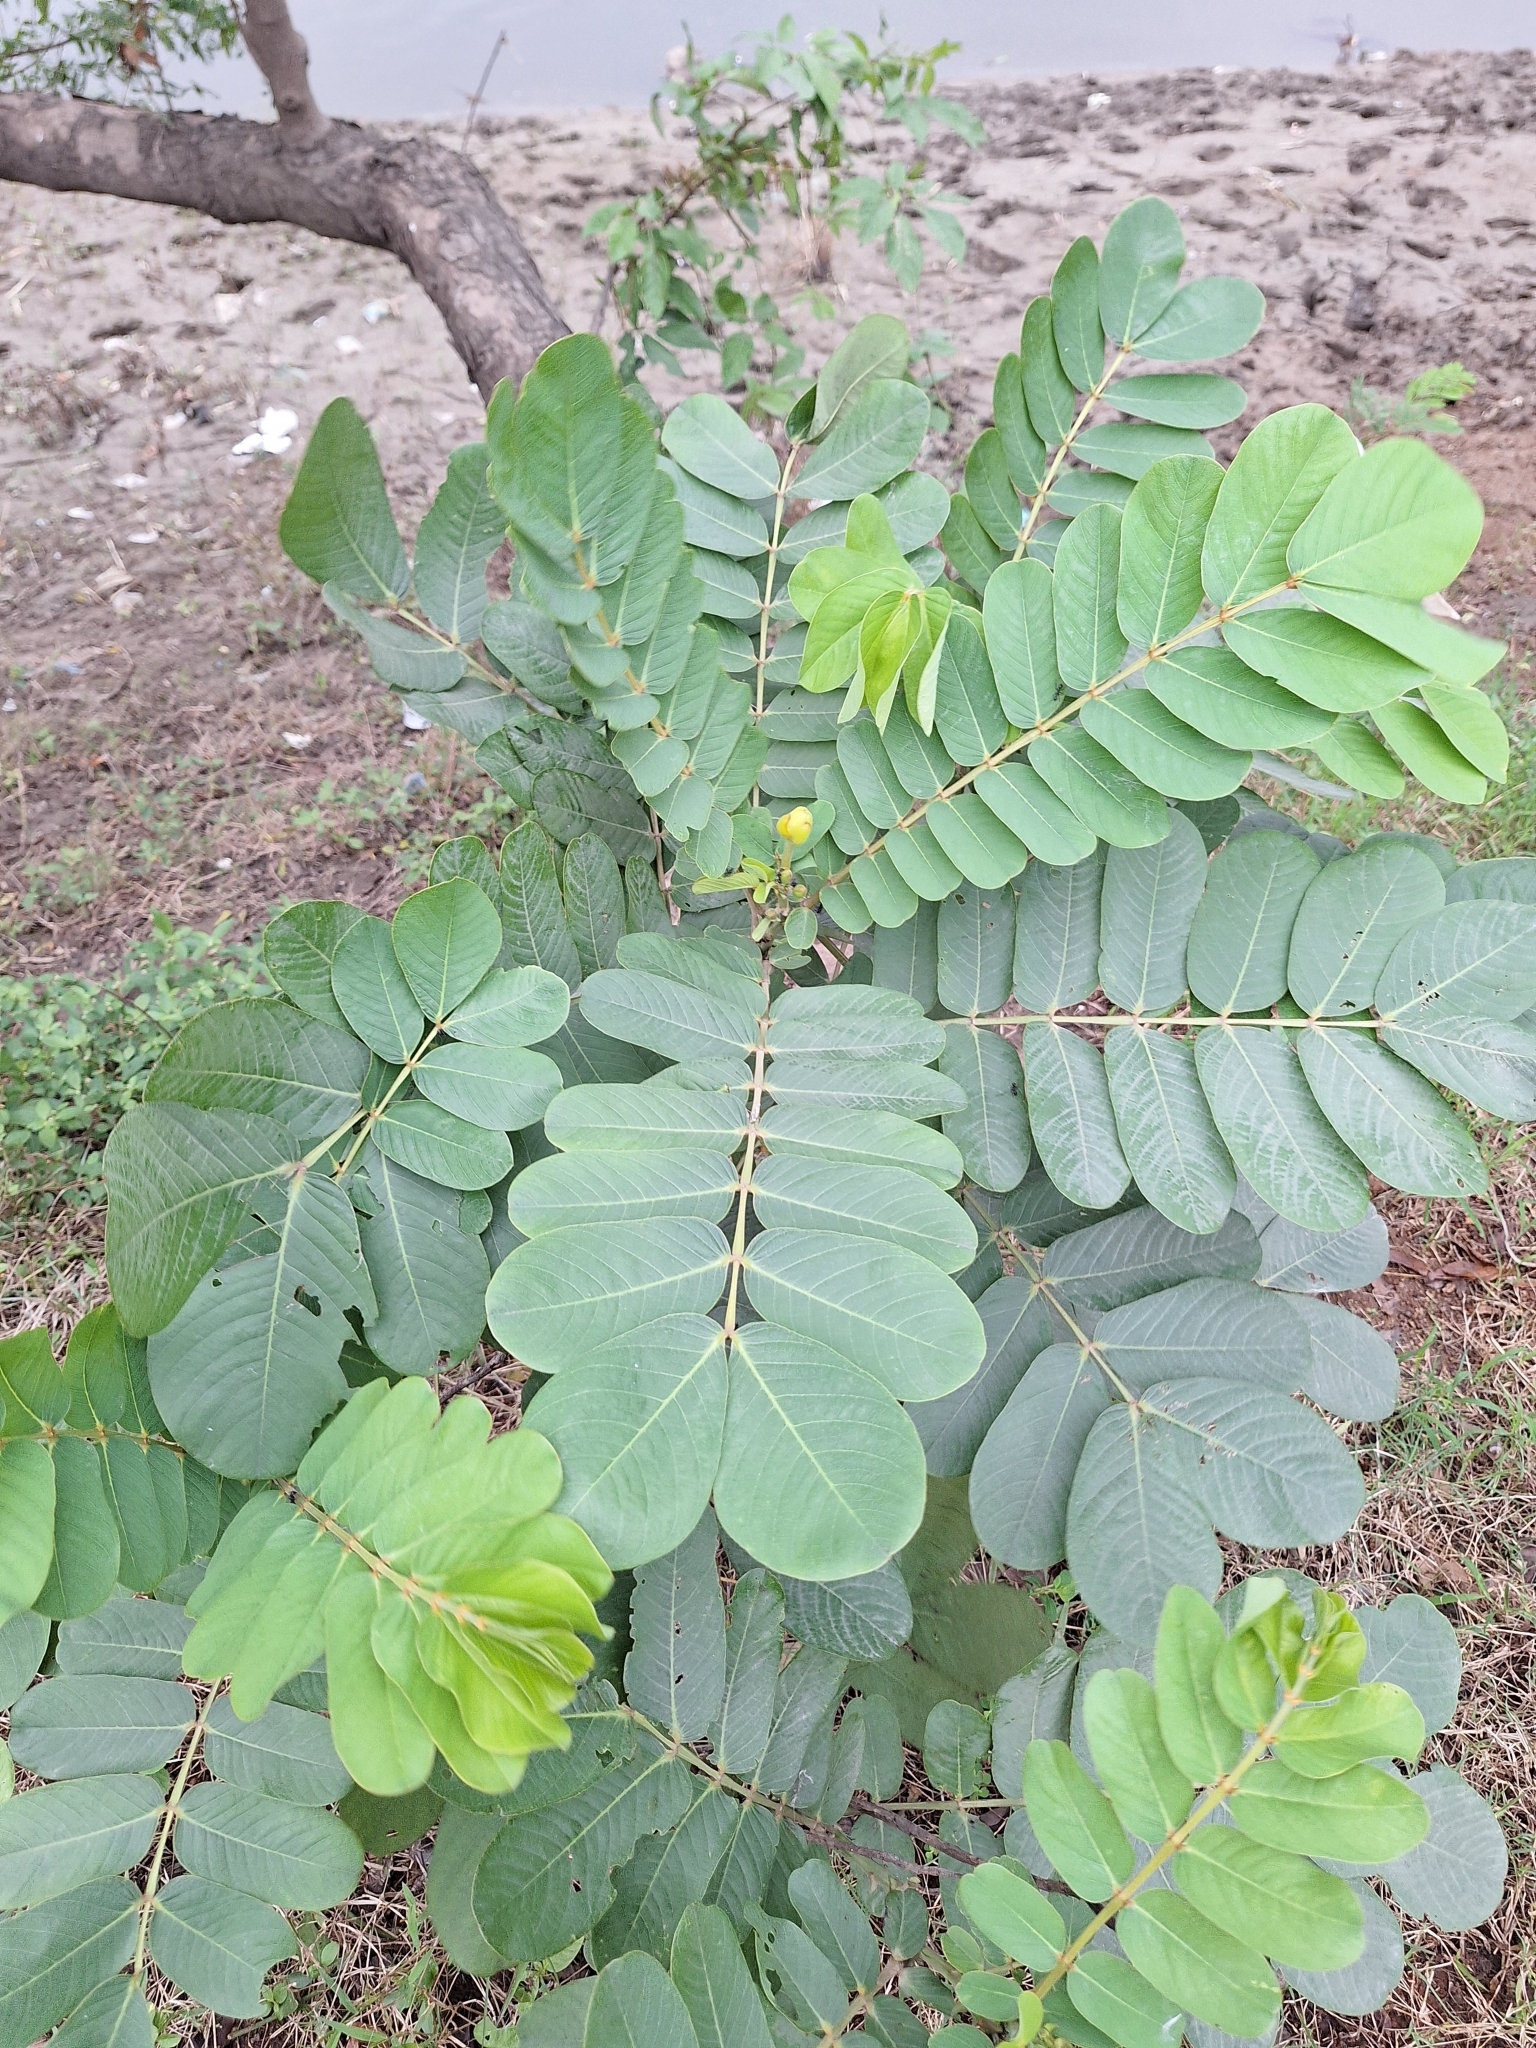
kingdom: Plantae
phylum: Tracheophyta
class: Magnoliopsida
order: Fabales
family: Fabaceae
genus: Senna
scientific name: Senna alata
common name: Emperor's candlesticks
